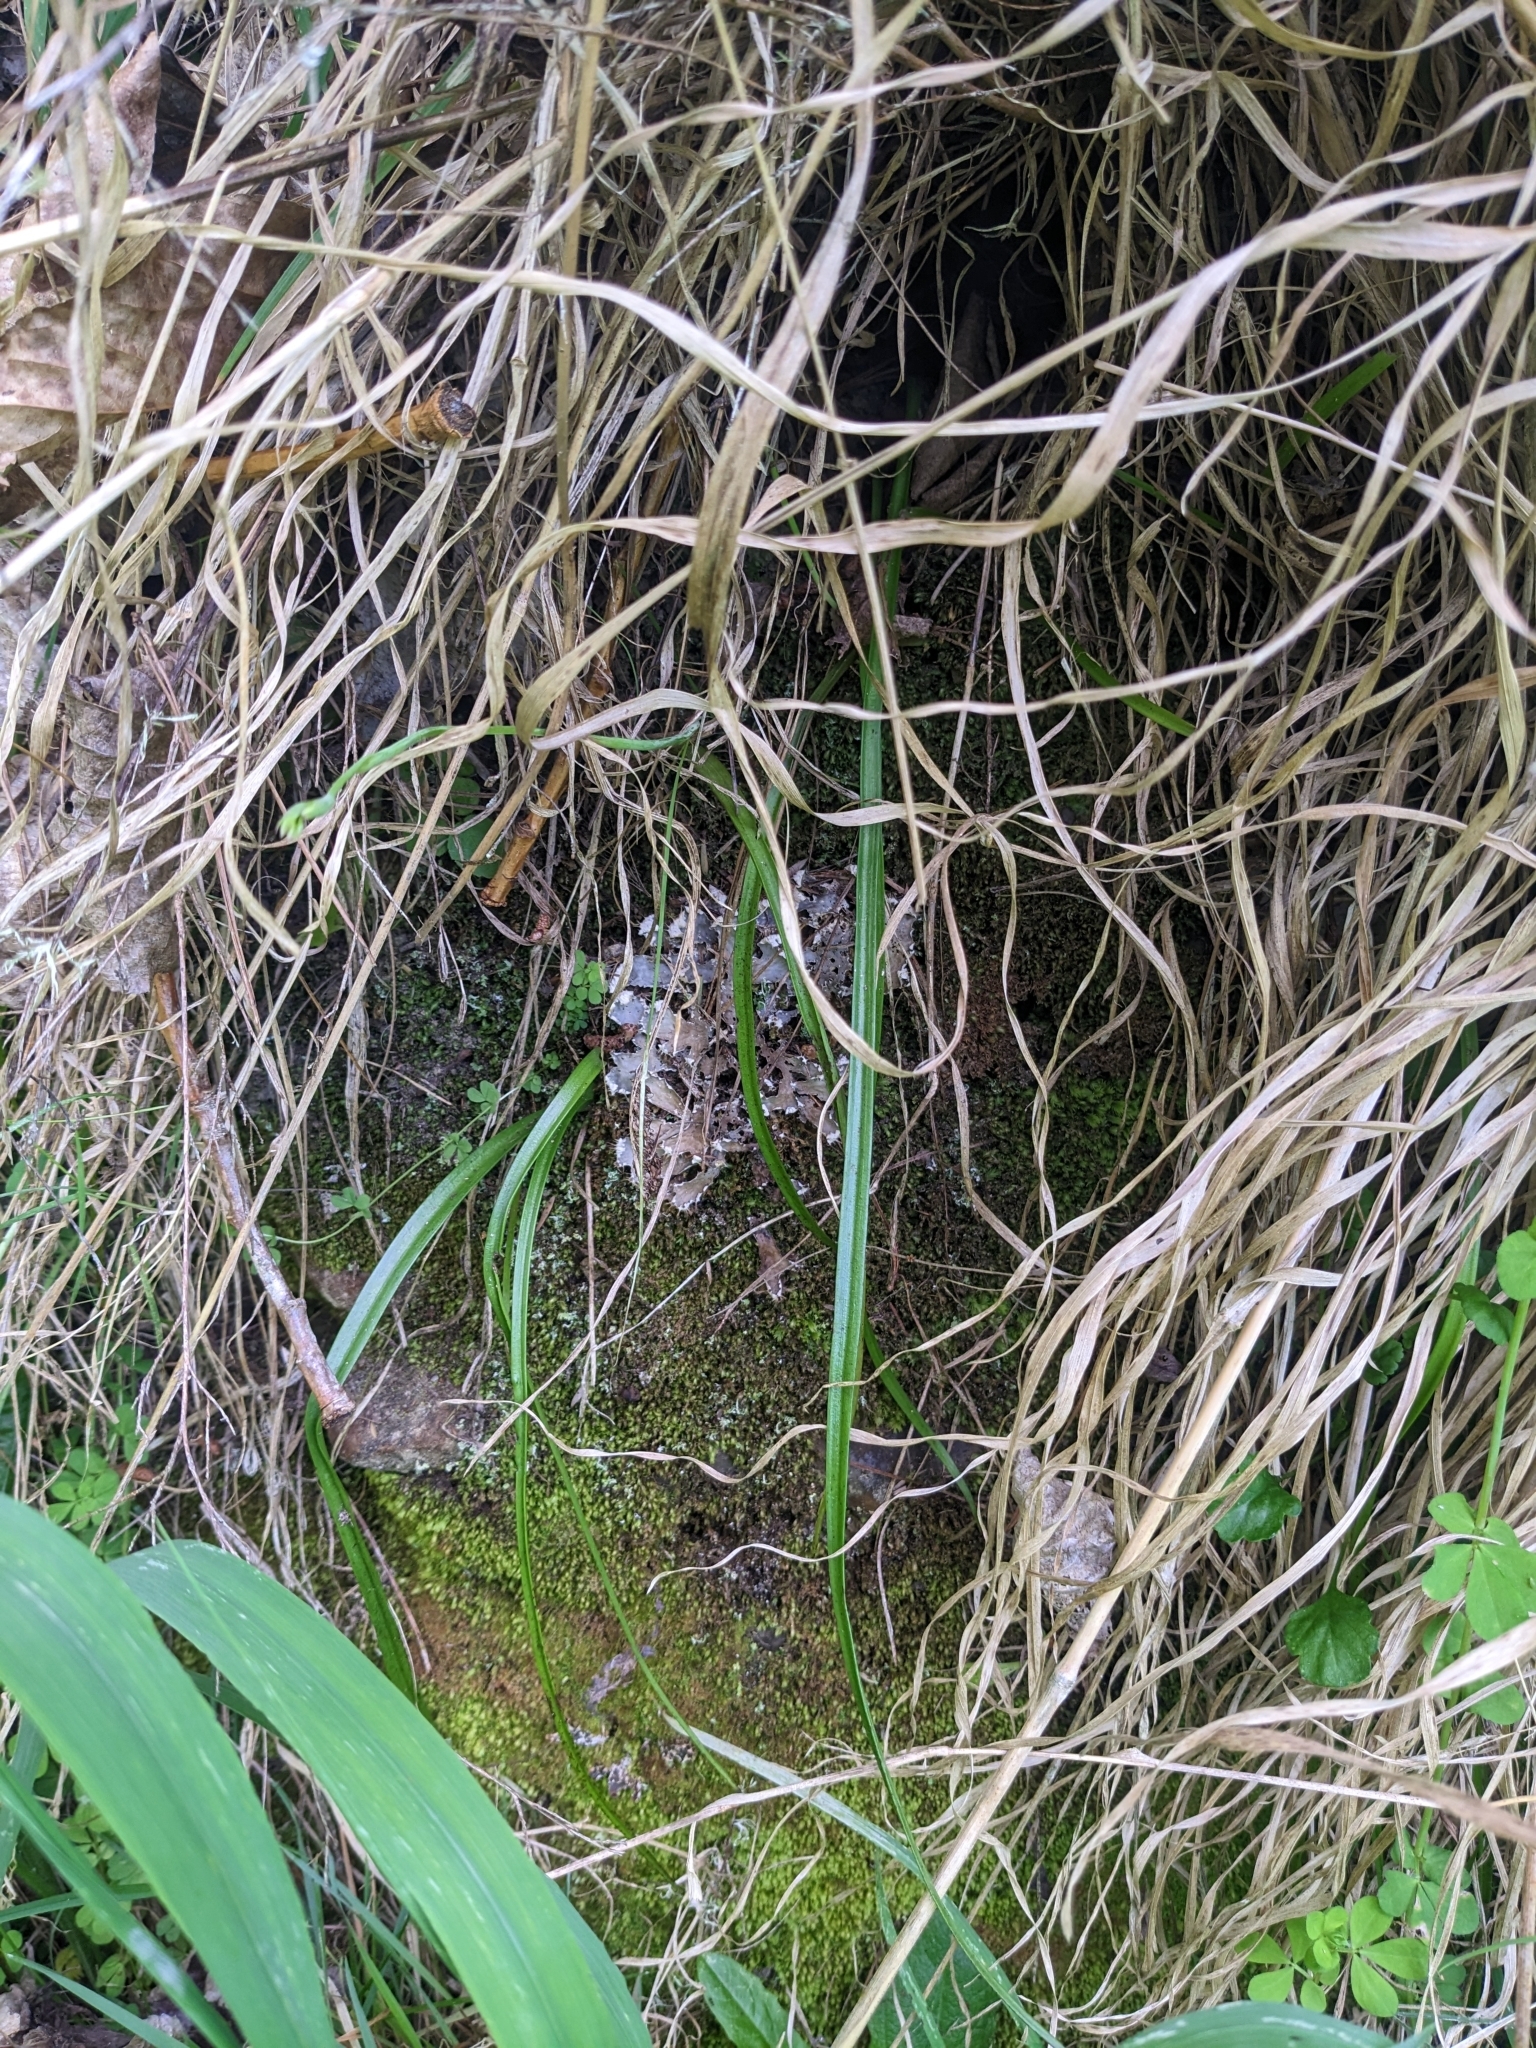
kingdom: Plantae
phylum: Tracheophyta
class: Liliopsida
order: Asparagales
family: Orchidaceae
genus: Thelymitra
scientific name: Thelymitra longifolia
